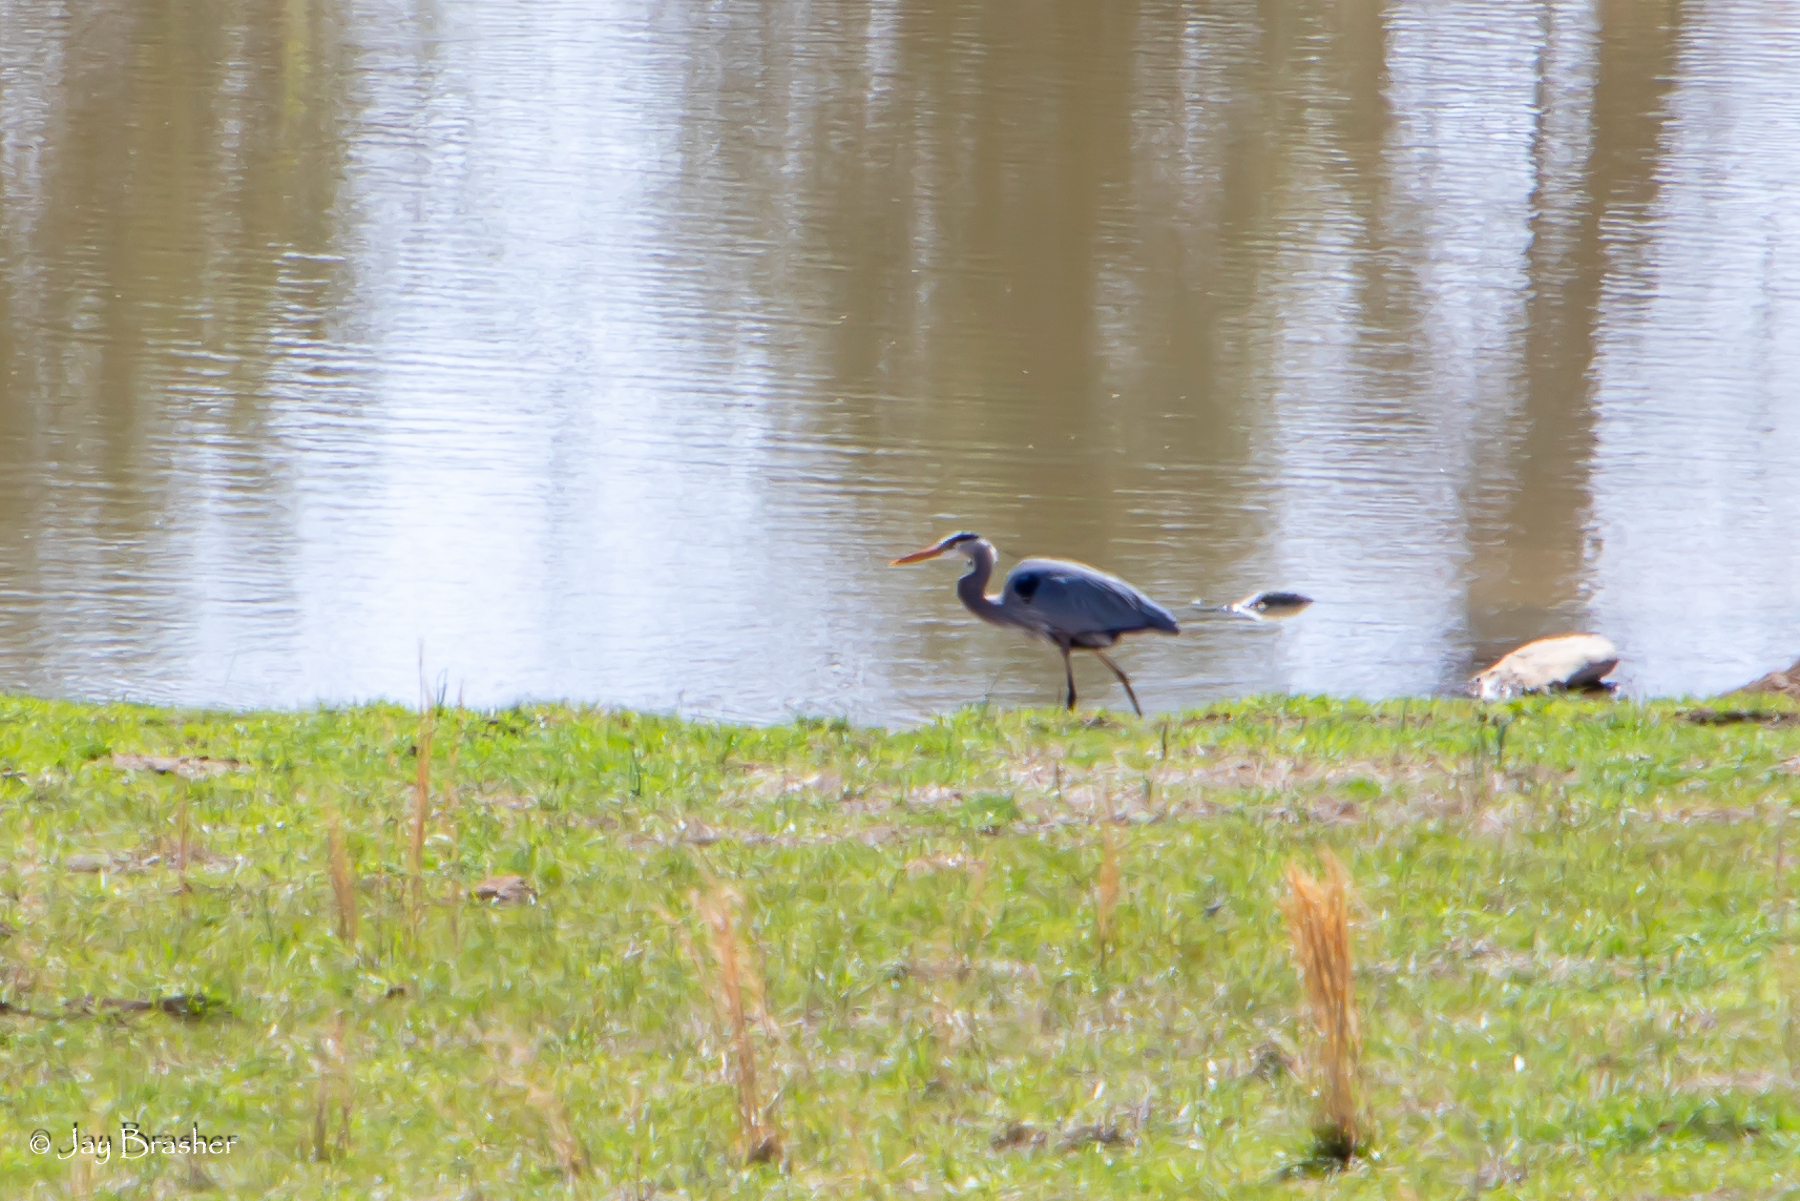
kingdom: Animalia
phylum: Chordata
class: Aves
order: Pelecaniformes
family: Ardeidae
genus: Ardea
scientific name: Ardea herodias
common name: Great blue heron
